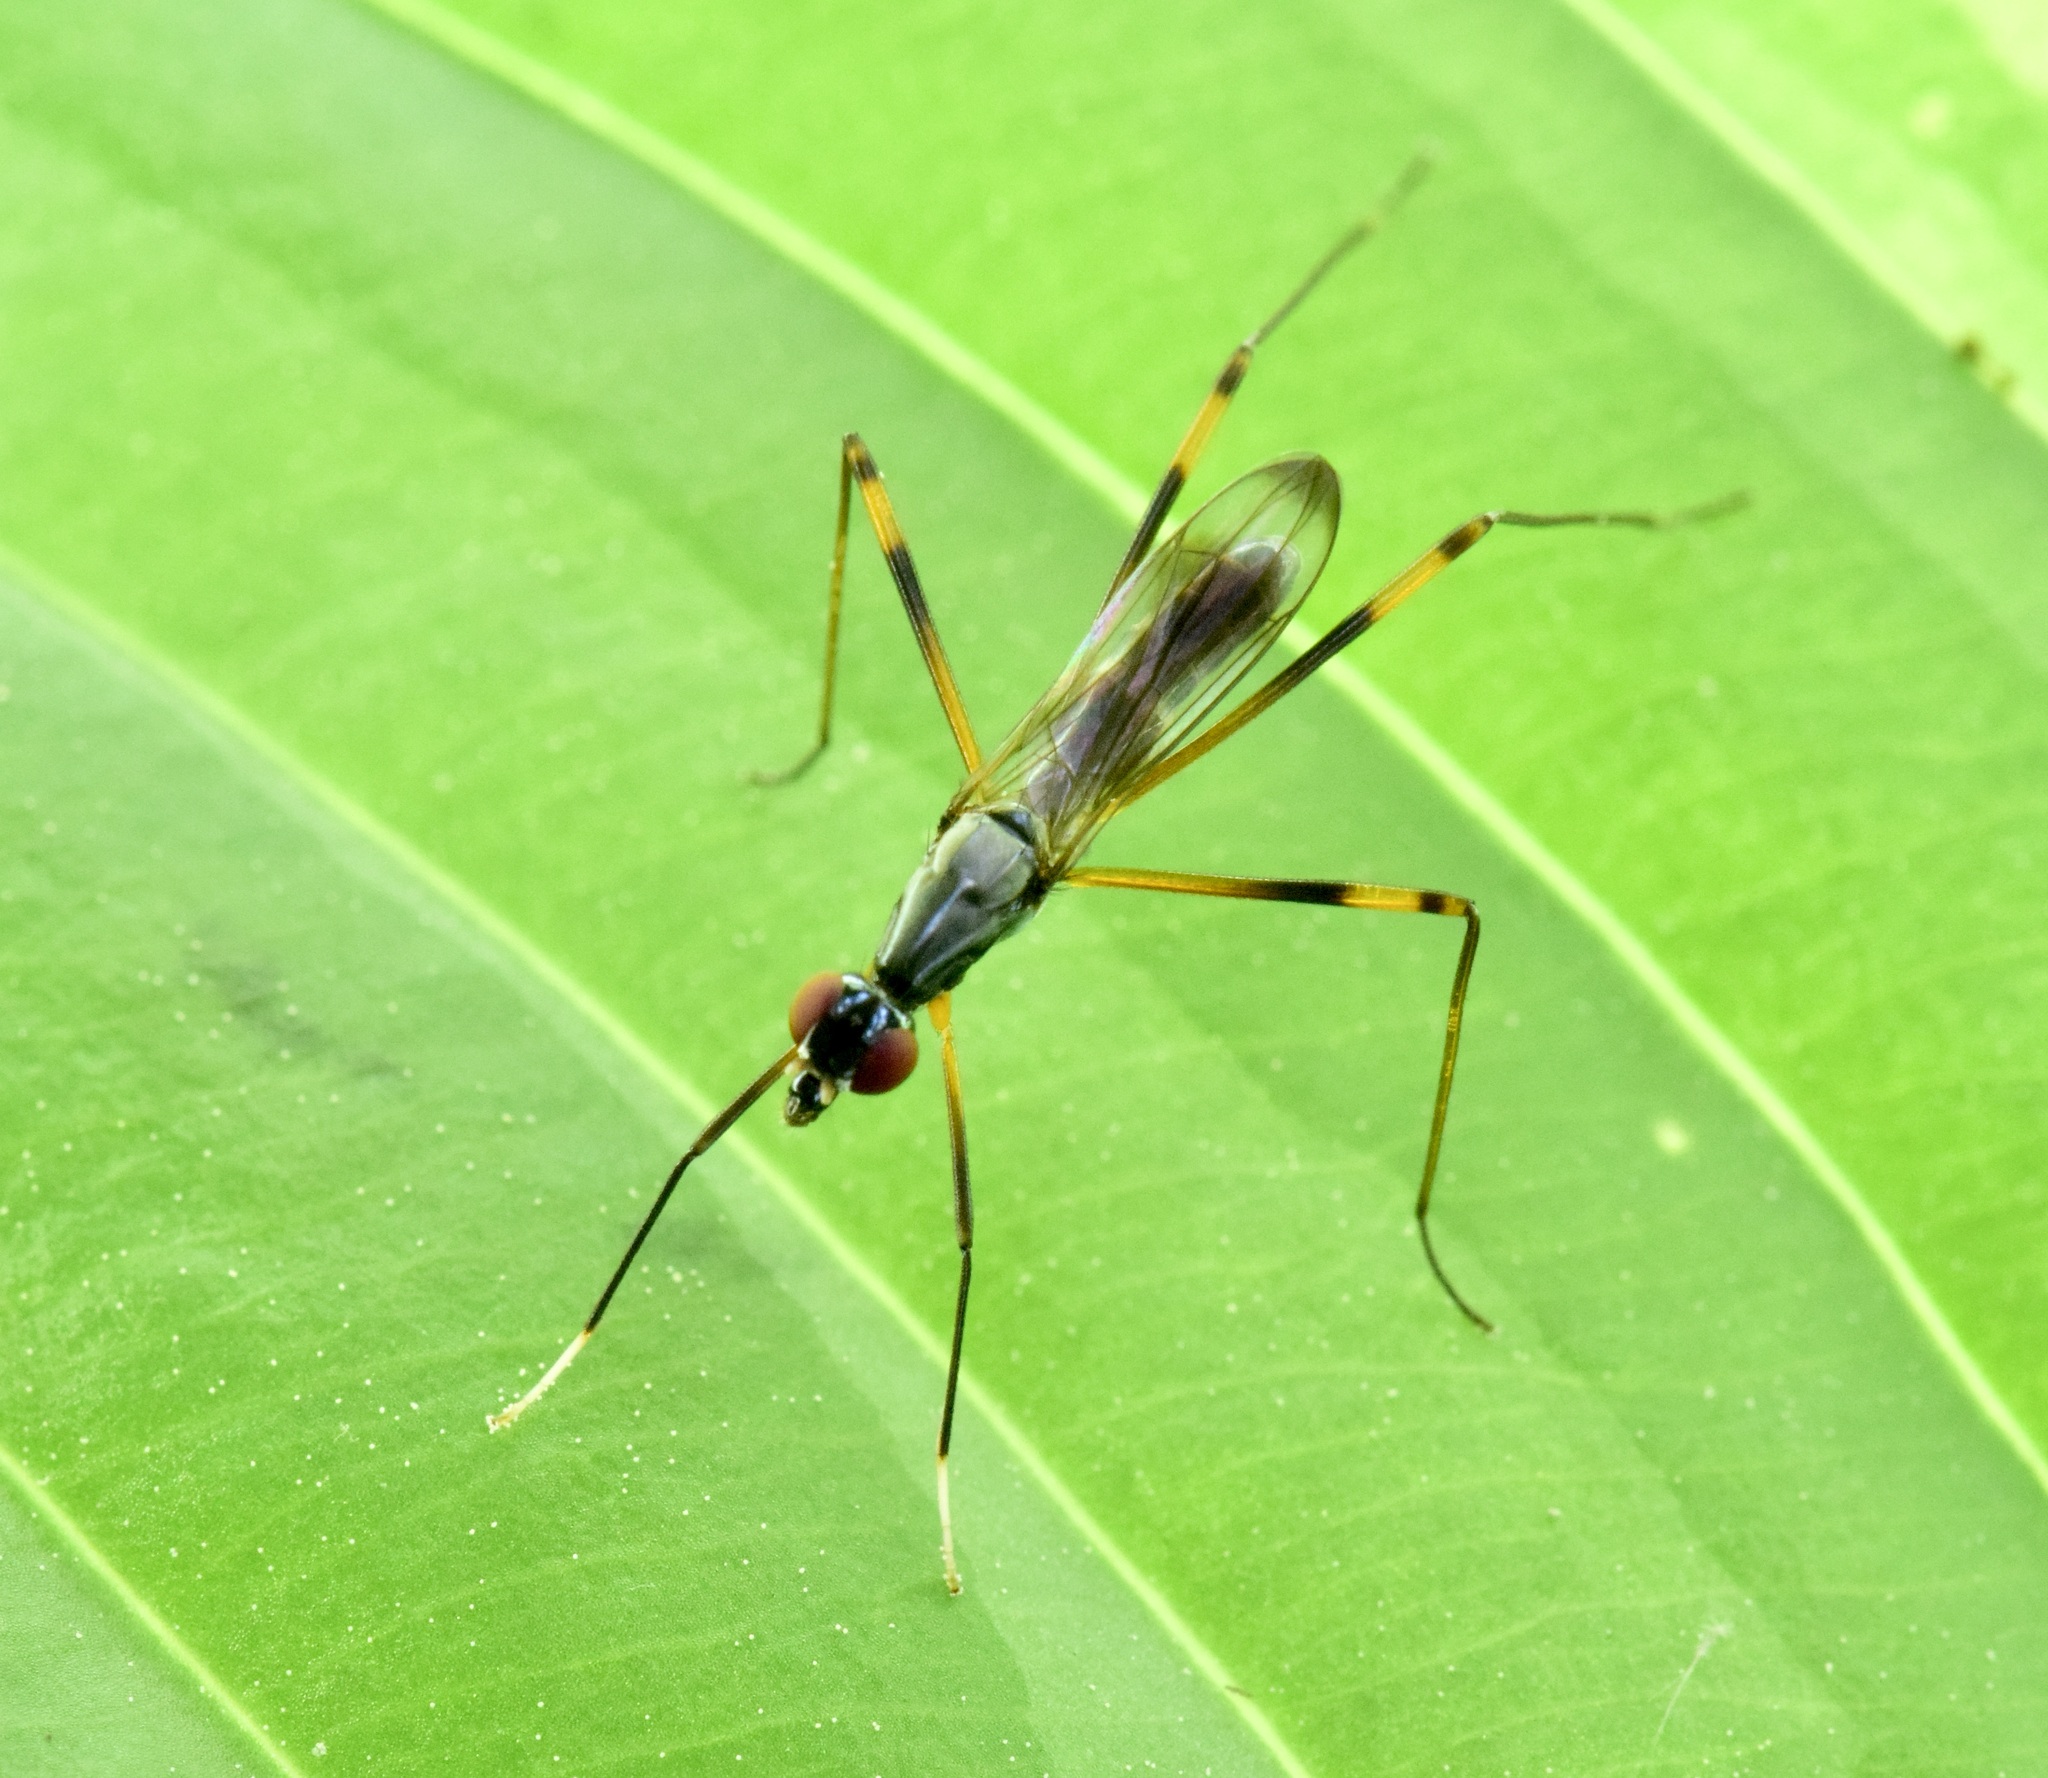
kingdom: Animalia
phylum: Arthropoda
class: Insecta
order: Diptera
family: Micropezidae
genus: Rainieria
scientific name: Rainieria antennaepes
